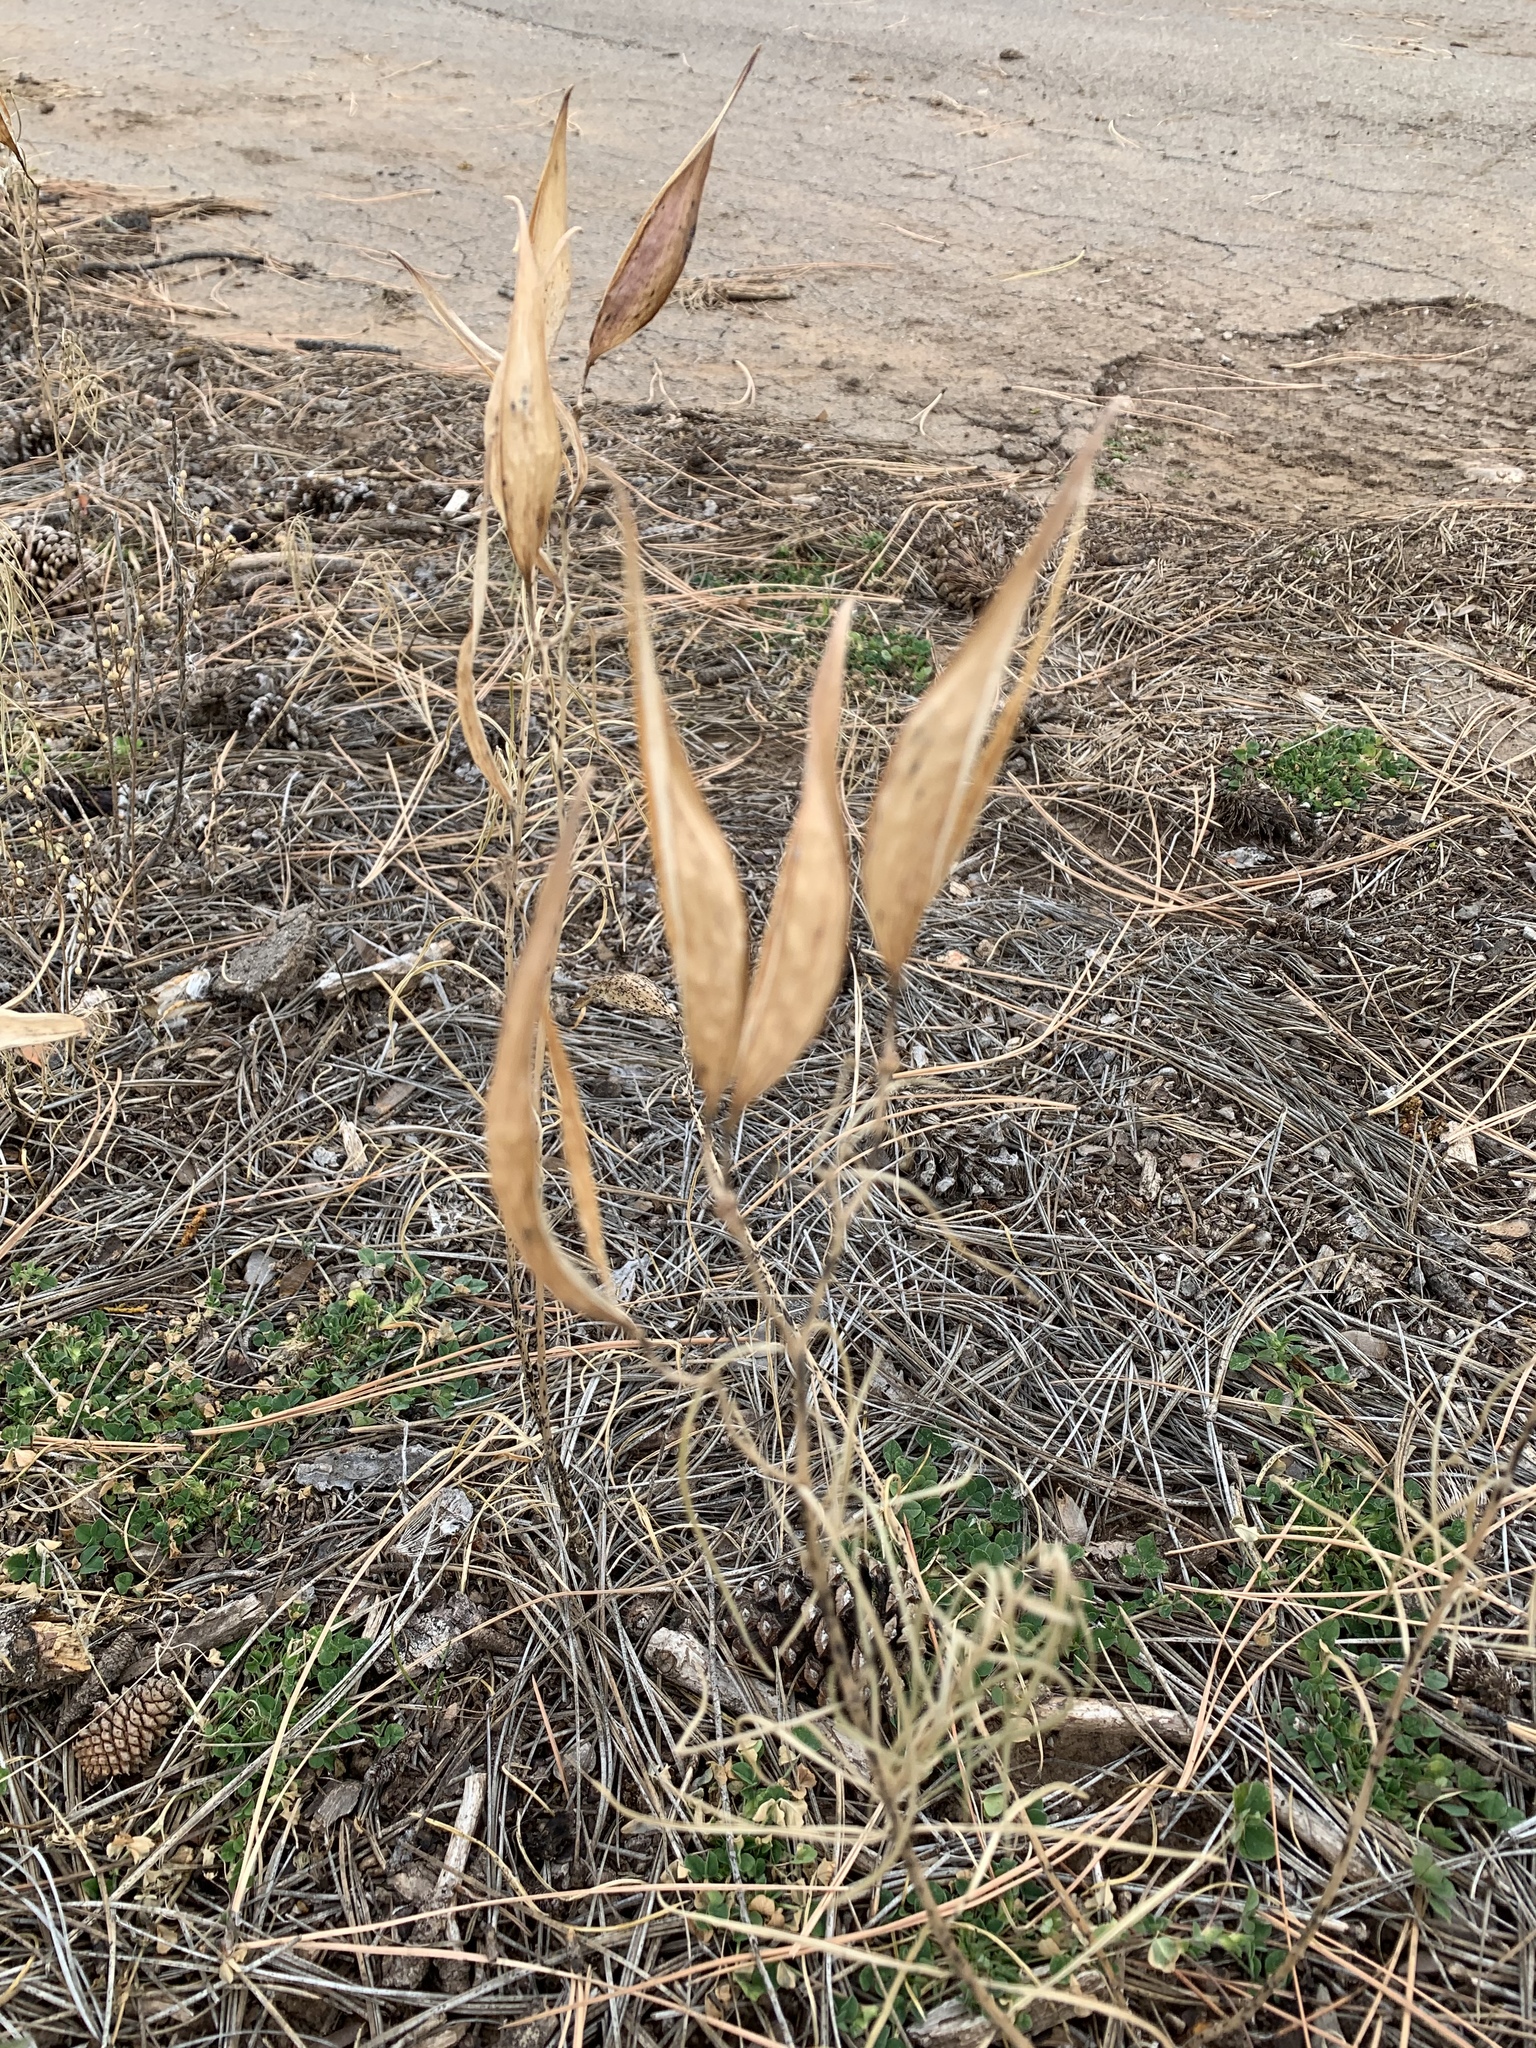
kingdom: Plantae
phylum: Tracheophyta
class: Magnoliopsida
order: Gentianales
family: Apocynaceae
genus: Asclepias
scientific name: Asclepias subverticillata
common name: Horsetail milkweed
